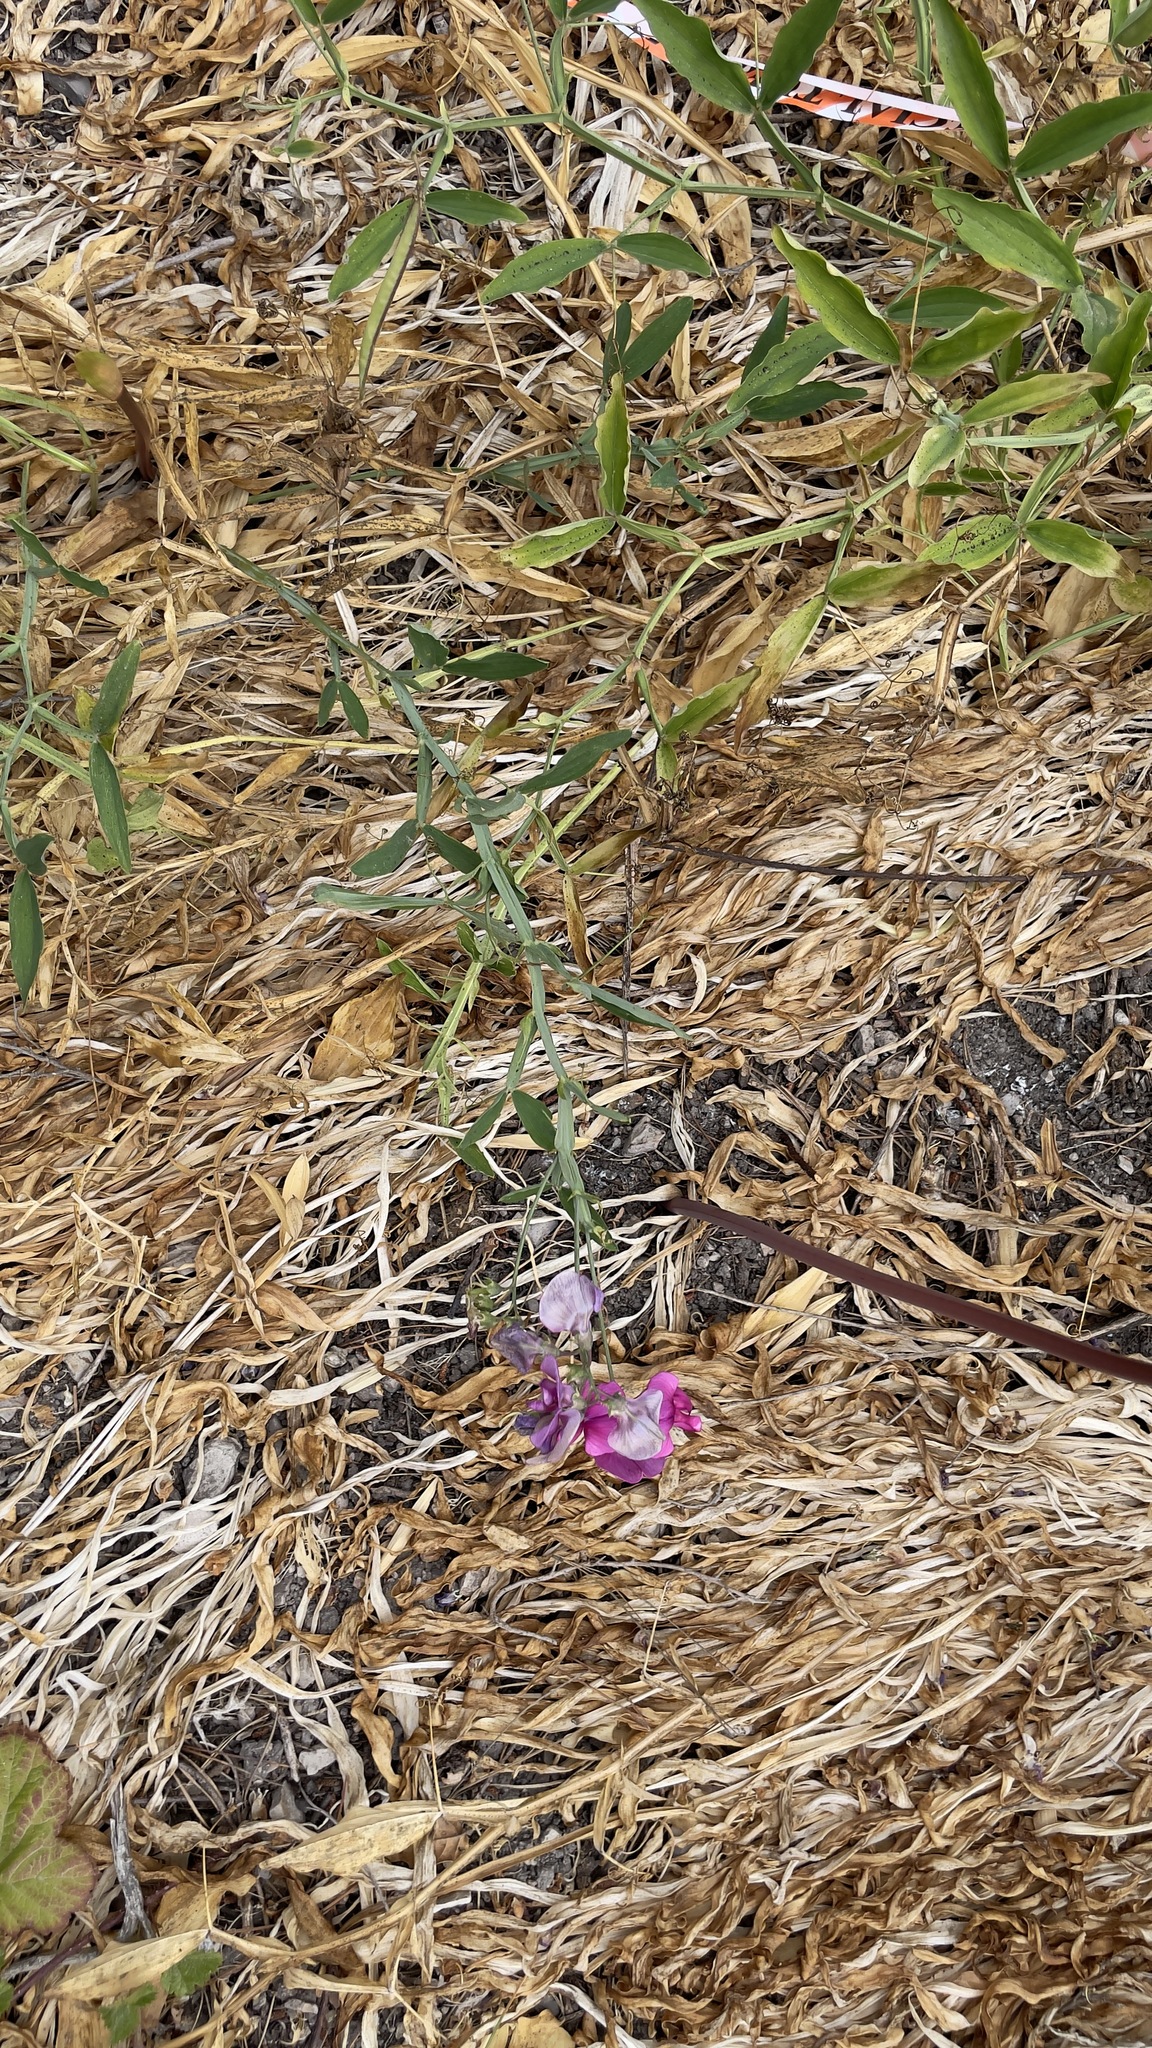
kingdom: Plantae
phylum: Tracheophyta
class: Magnoliopsida
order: Fabales
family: Fabaceae
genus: Lathyrus
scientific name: Lathyrus latifolius
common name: Perennial pea
